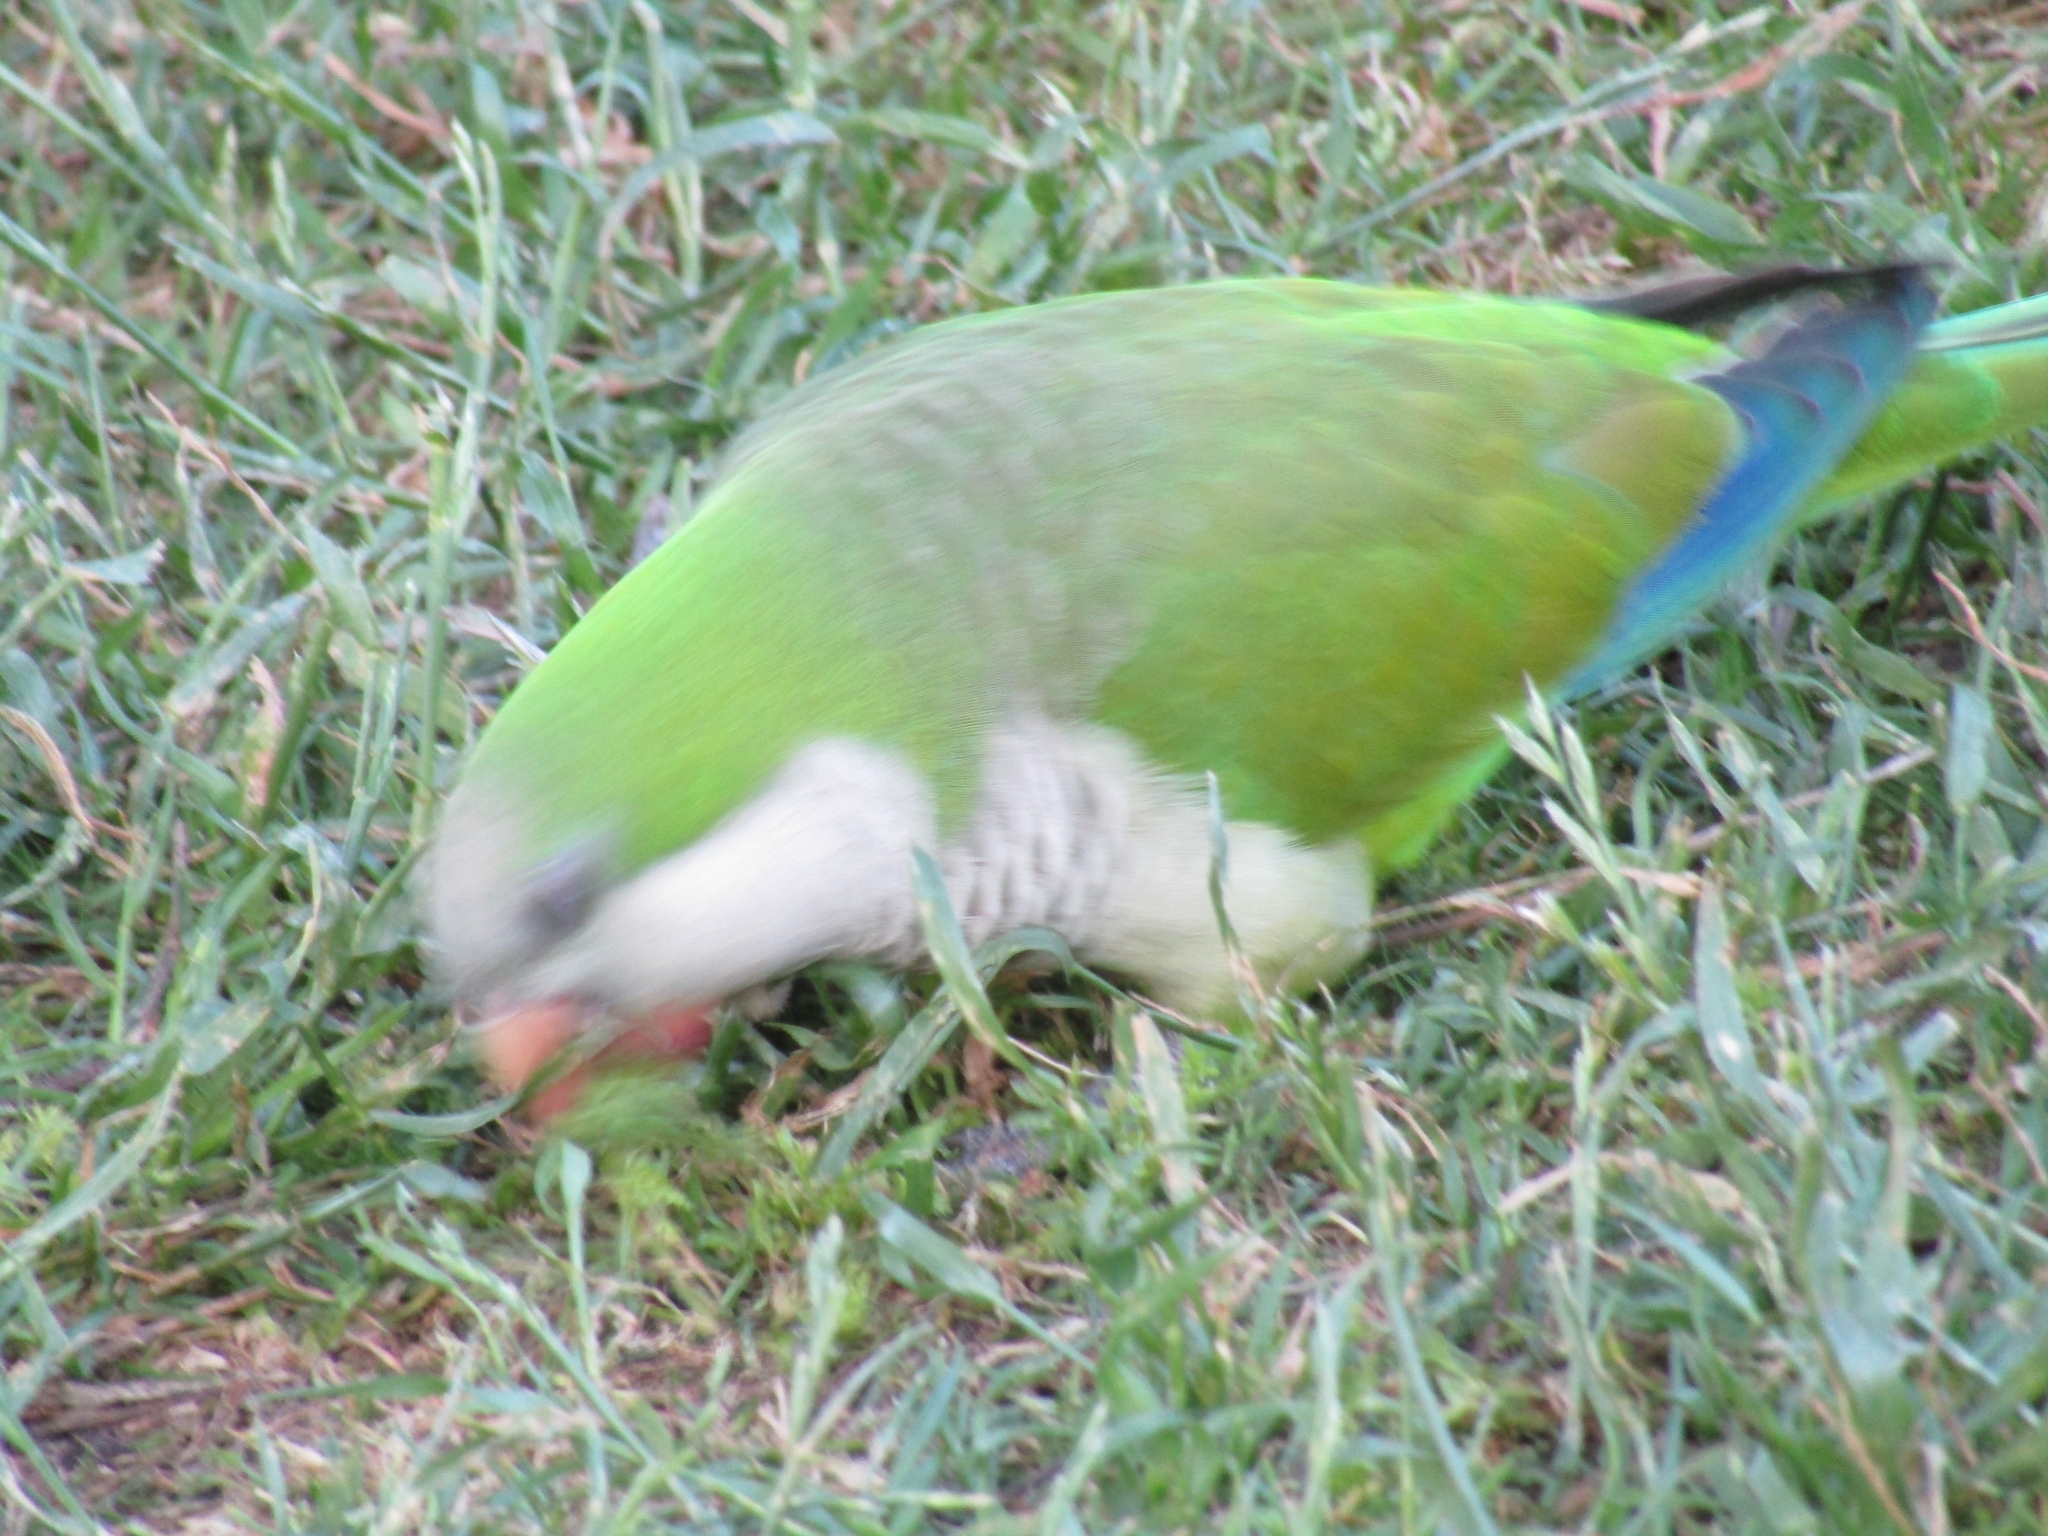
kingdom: Animalia
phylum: Chordata
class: Aves
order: Psittaciformes
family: Psittacidae
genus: Myiopsitta
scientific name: Myiopsitta monachus
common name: Monk parakeet
